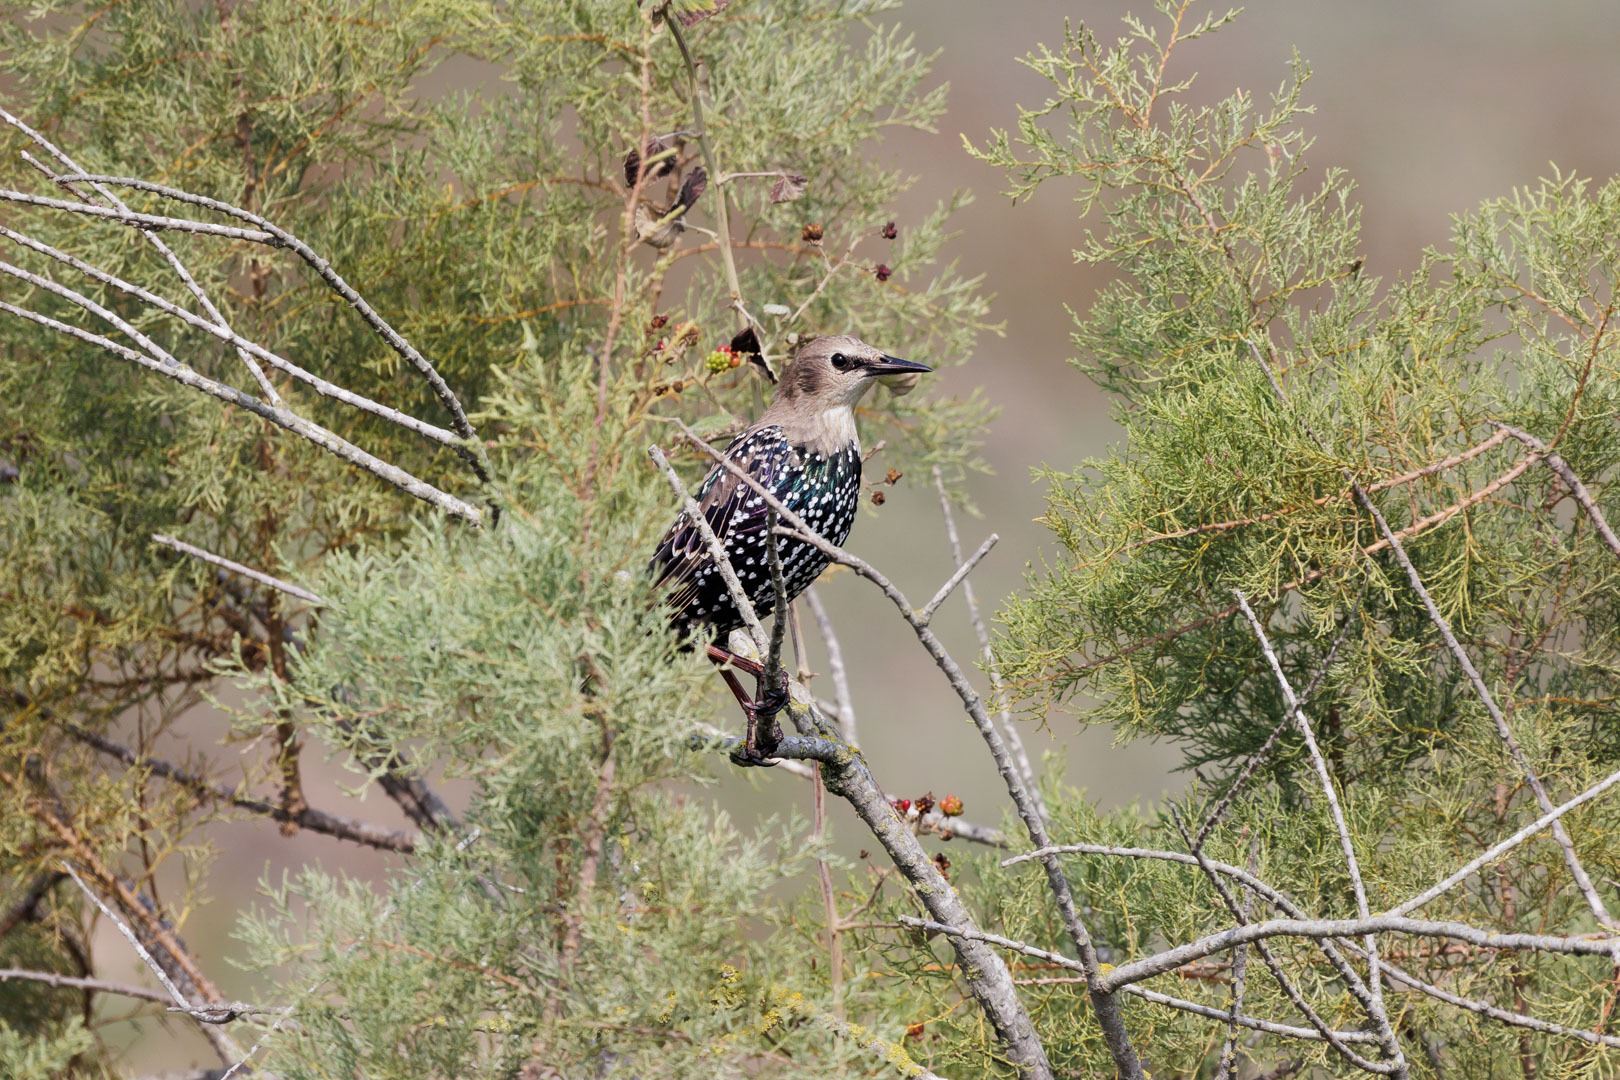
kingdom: Animalia
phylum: Chordata
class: Aves
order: Passeriformes
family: Sturnidae
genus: Sturnus
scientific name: Sturnus vulgaris
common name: Common starling
